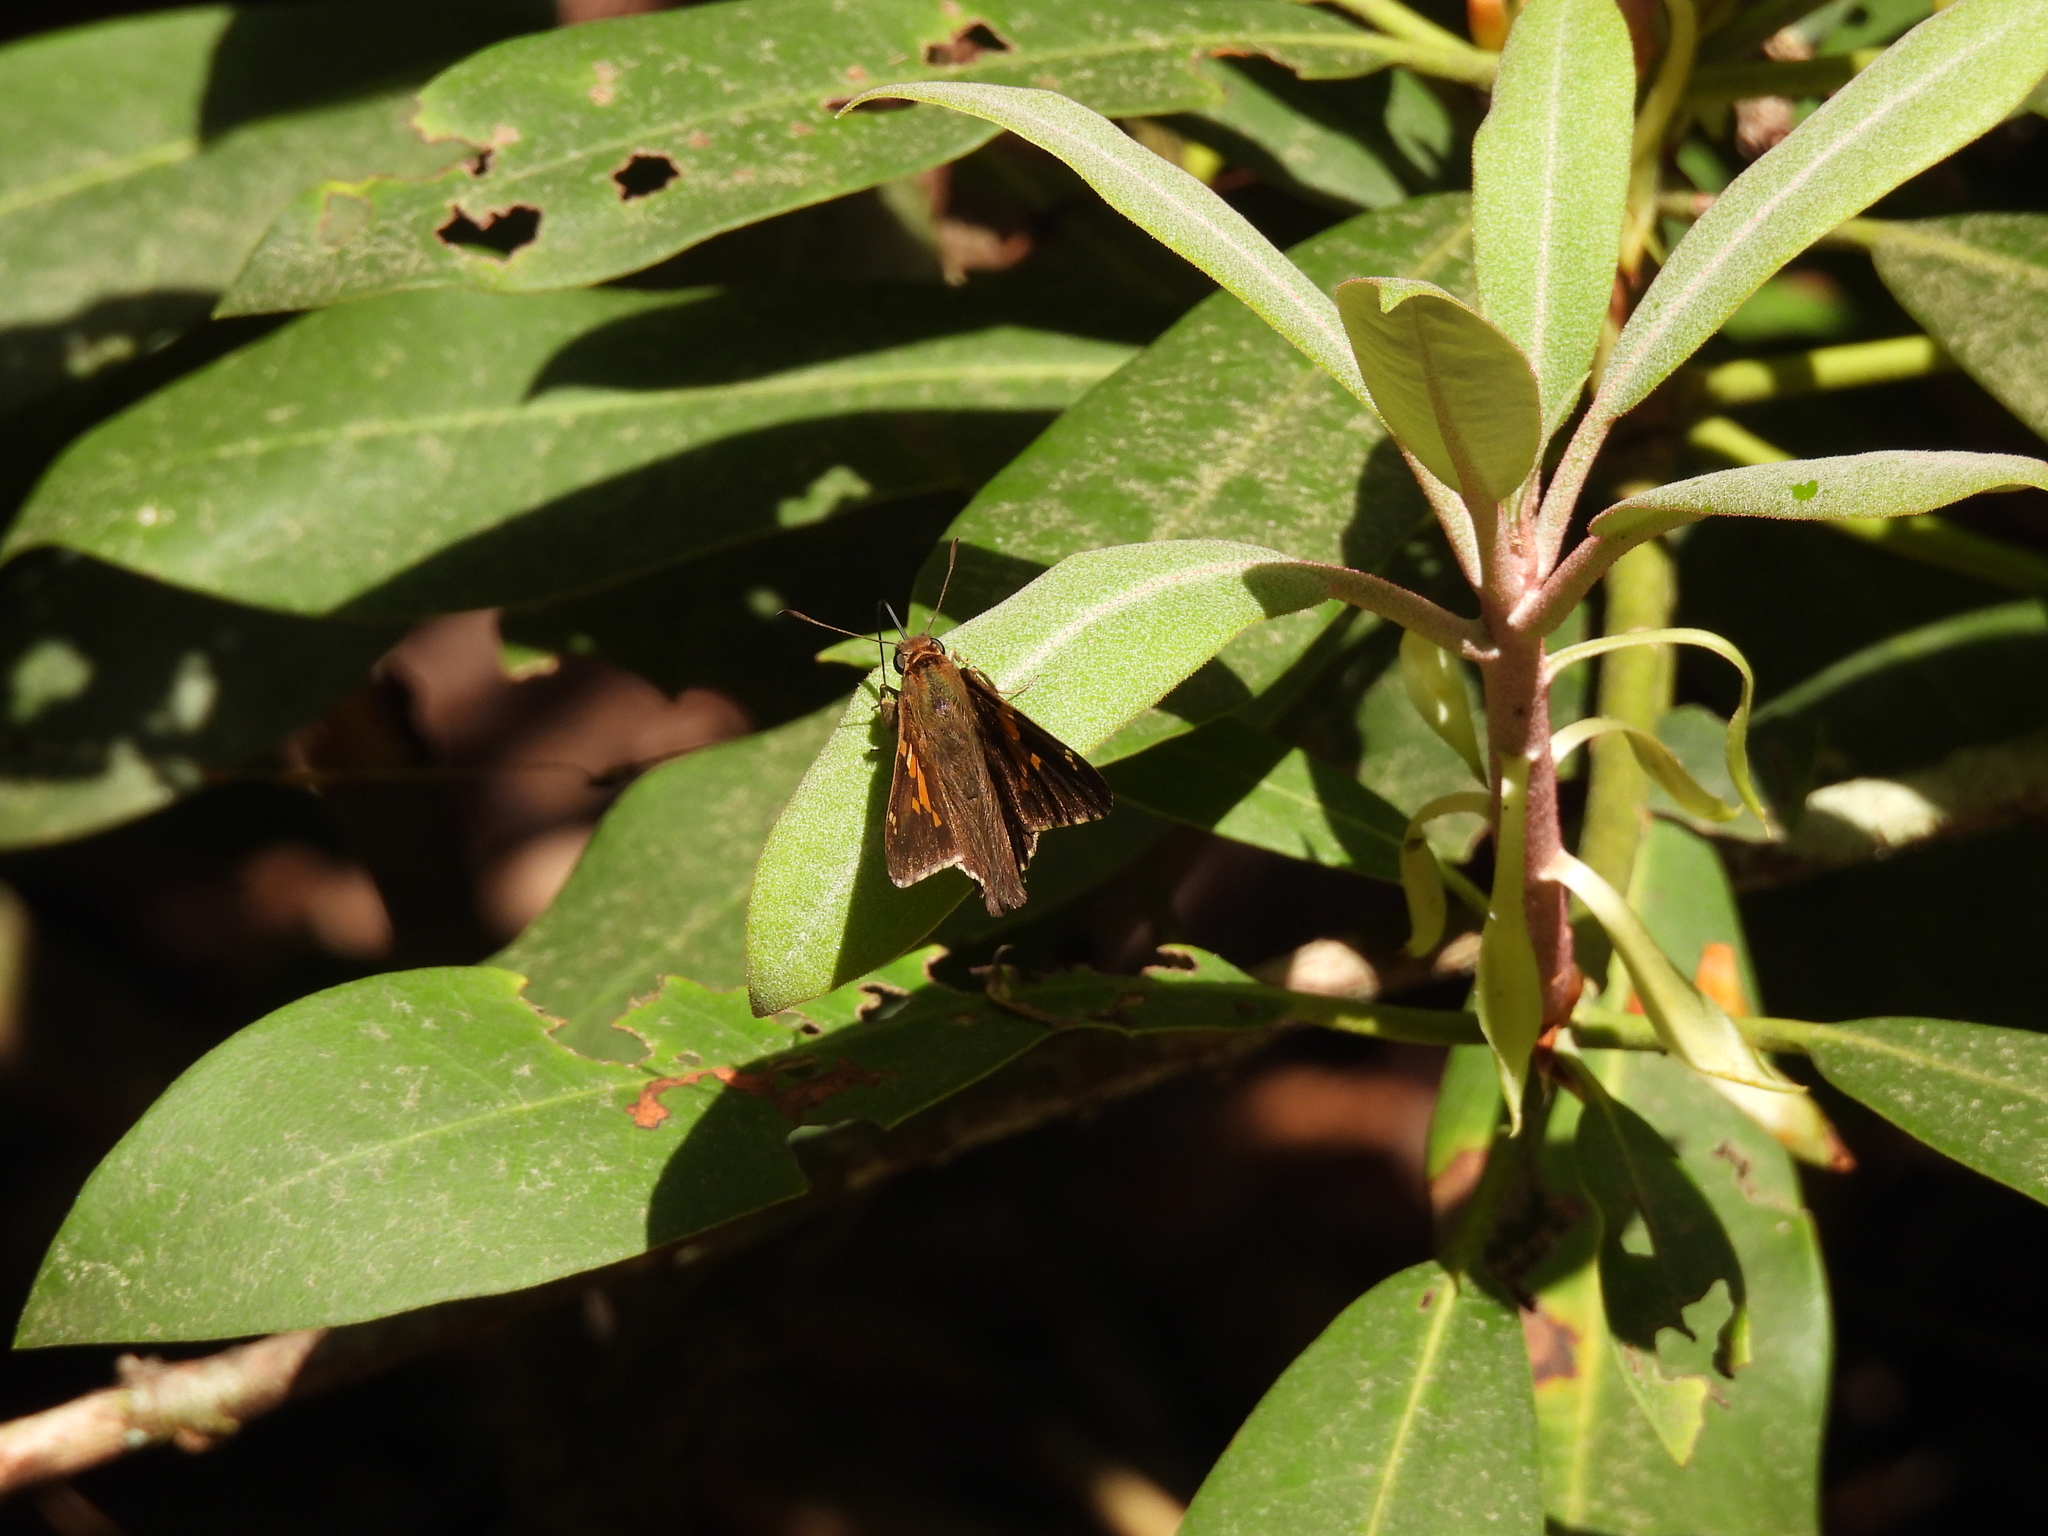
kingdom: Animalia
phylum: Arthropoda
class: Insecta
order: Lepidoptera
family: Hesperiidae
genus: Epargyreus
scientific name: Epargyreus clarus
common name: Silver-spotted skipper
